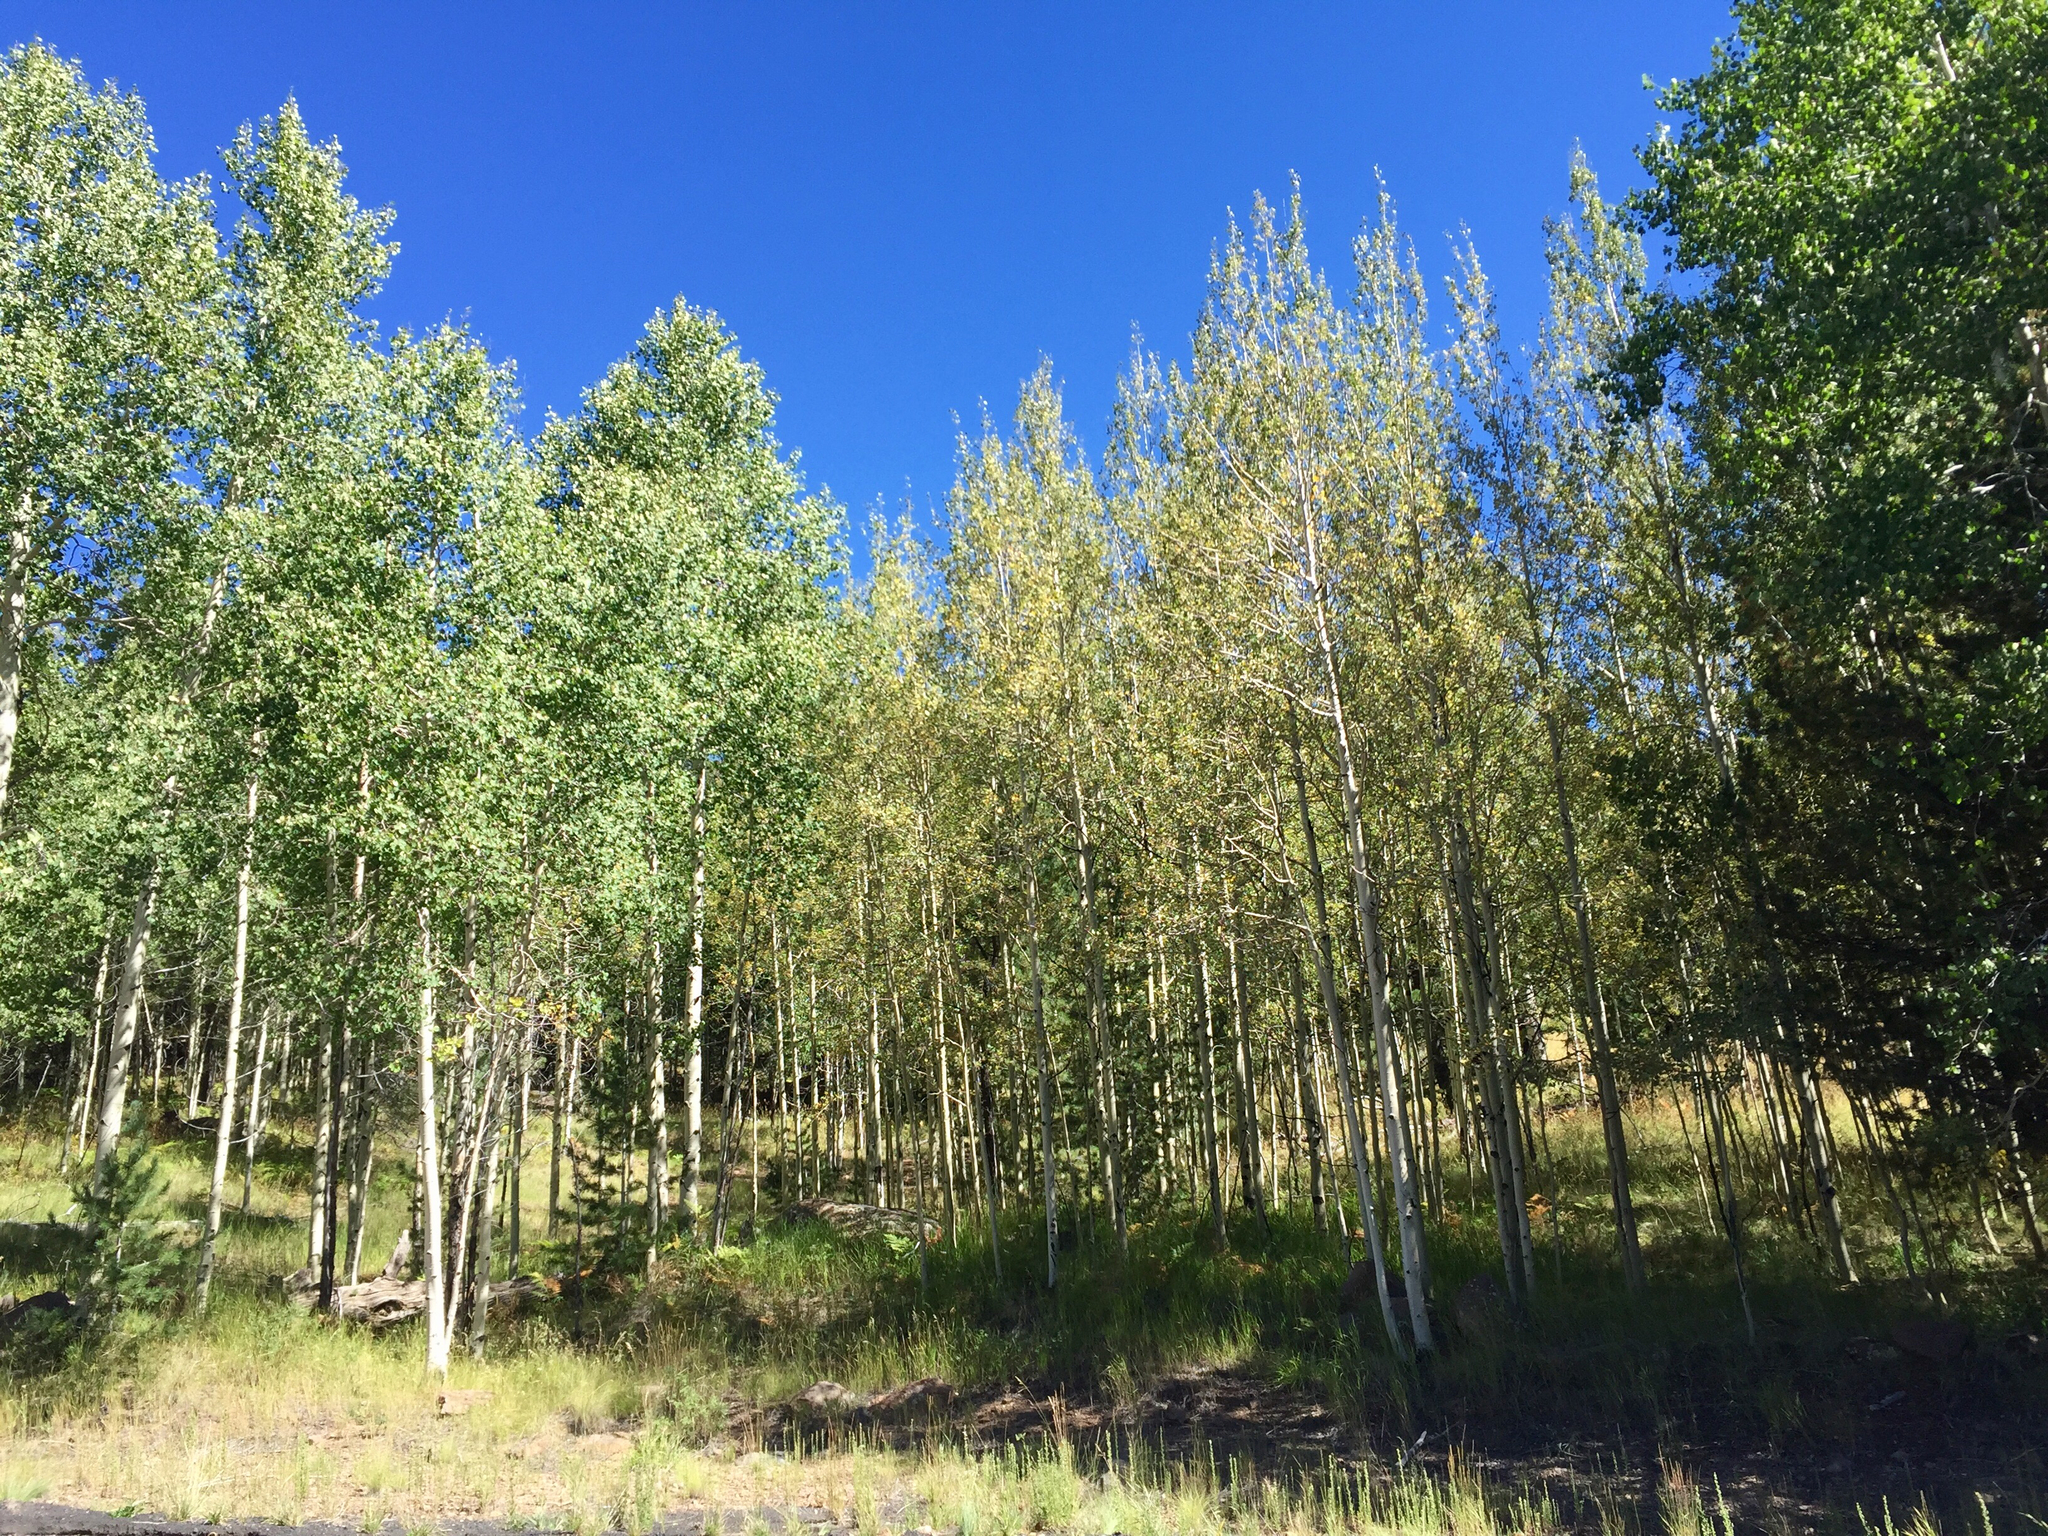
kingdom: Plantae
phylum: Tracheophyta
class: Magnoliopsida
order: Malpighiales
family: Salicaceae
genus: Populus
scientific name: Populus tremuloides
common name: Quaking aspen
